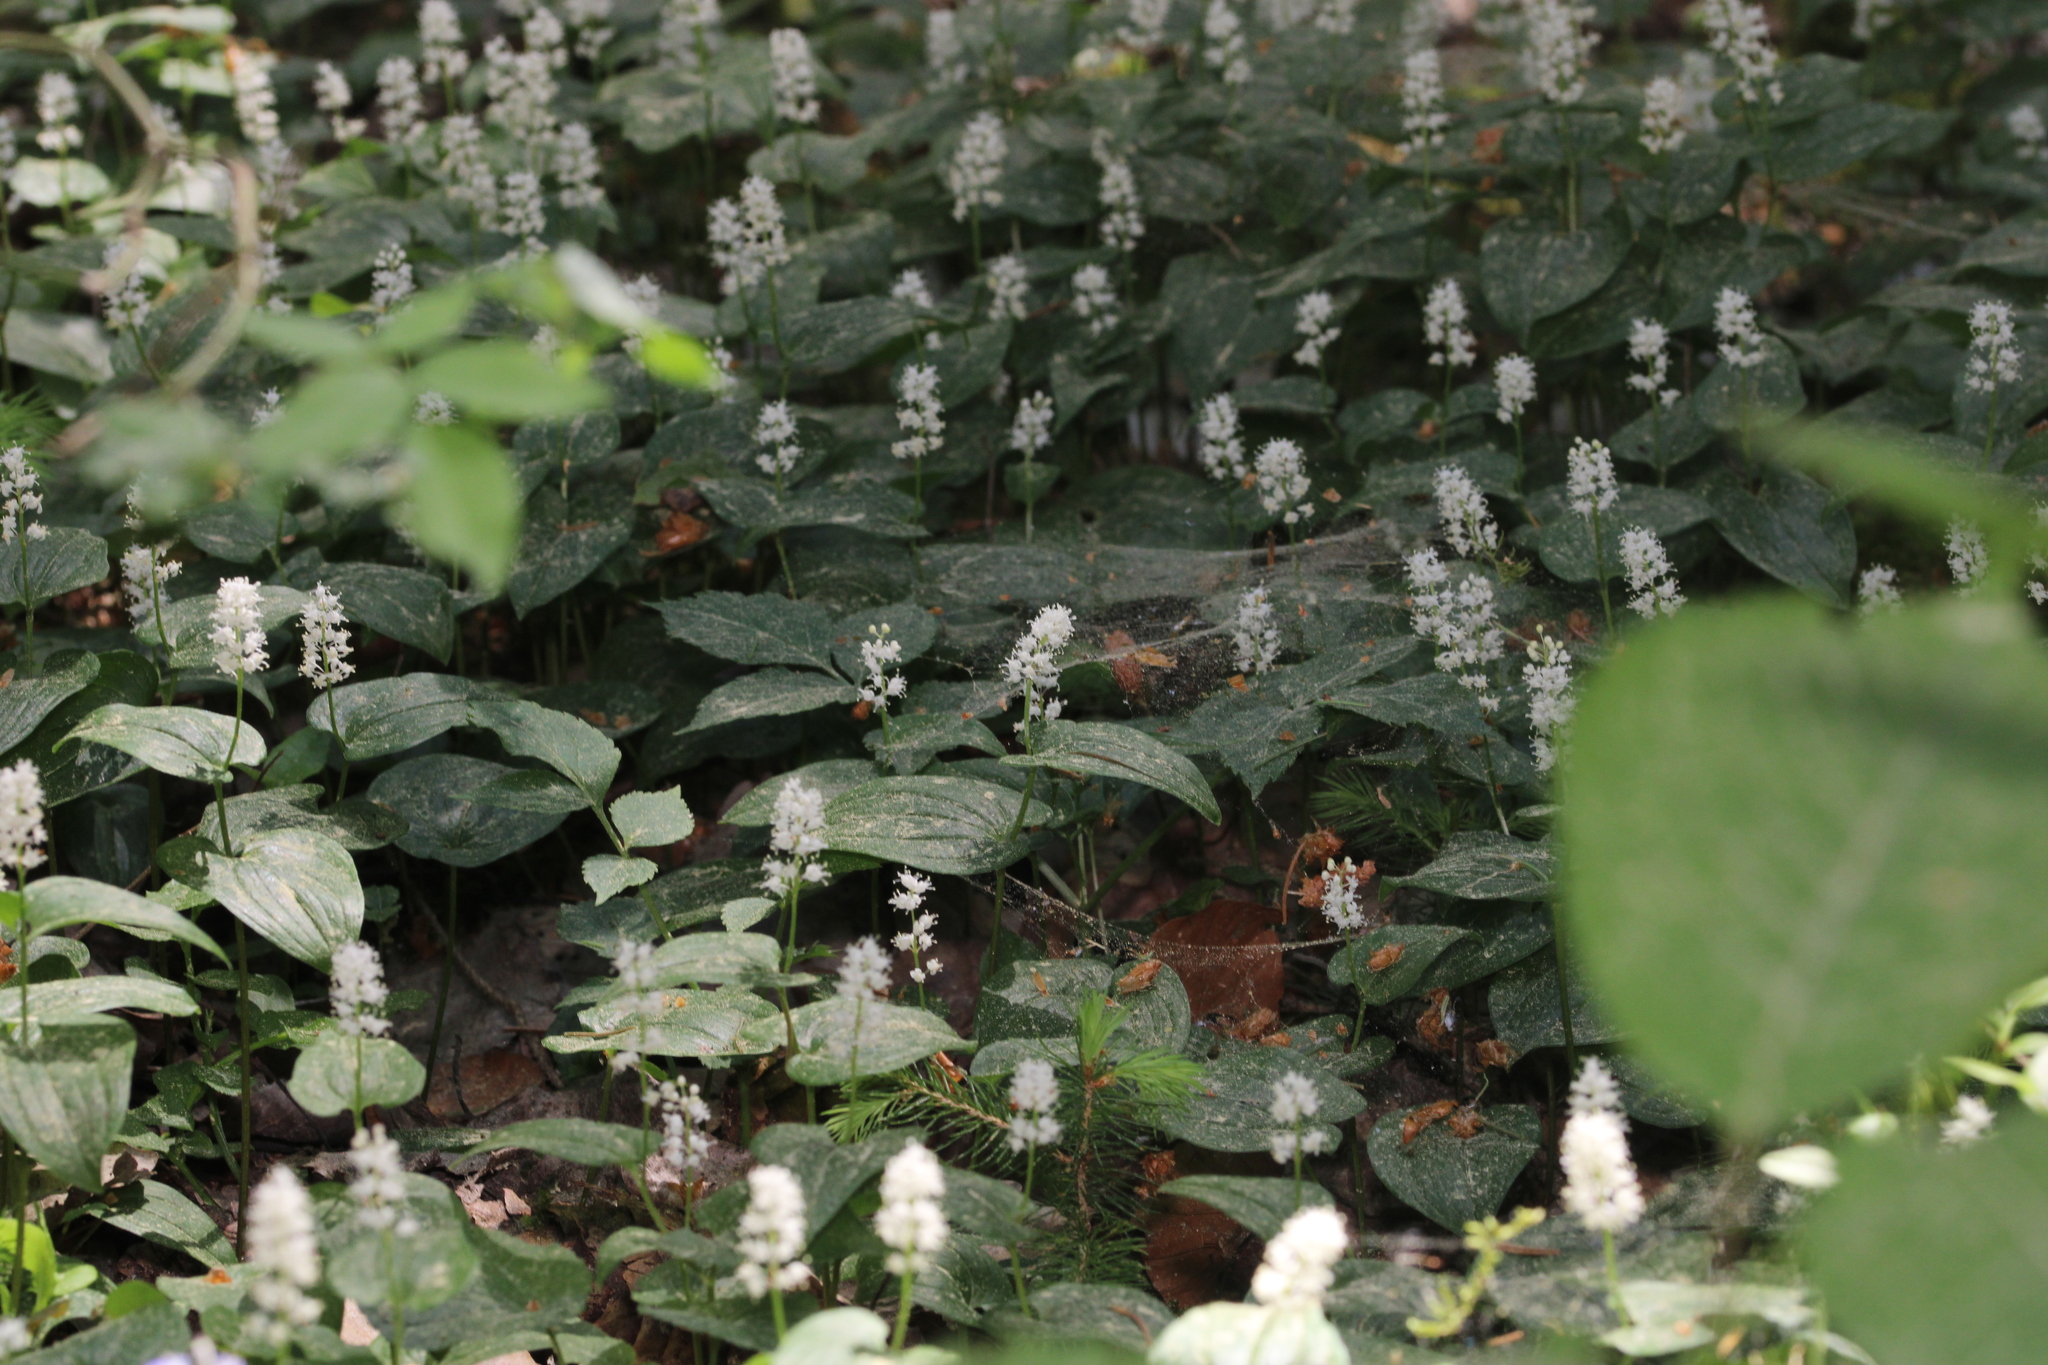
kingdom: Plantae
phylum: Tracheophyta
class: Liliopsida
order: Asparagales
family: Asparagaceae
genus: Maianthemum
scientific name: Maianthemum bifolium
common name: May lily
